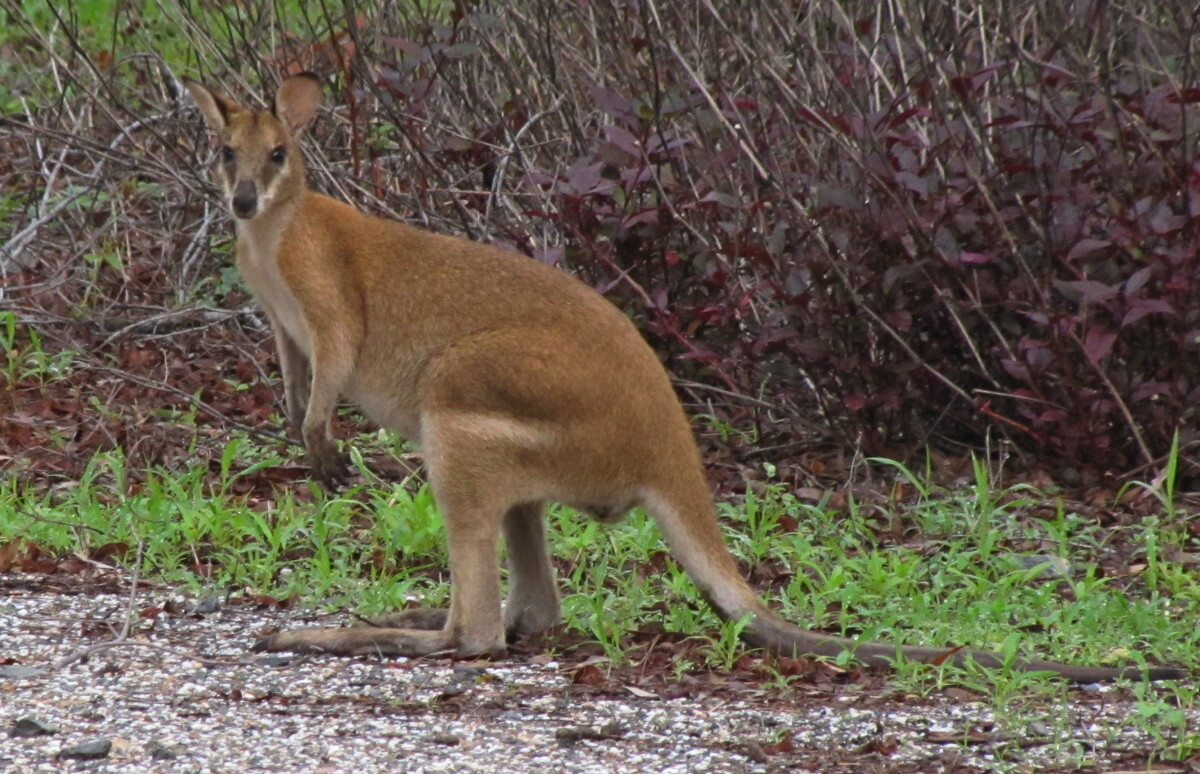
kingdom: Animalia
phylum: Chordata
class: Mammalia
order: Diprotodontia
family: Macropodidae
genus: Macropus
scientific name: Macropus agilis
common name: Agile wallaby
